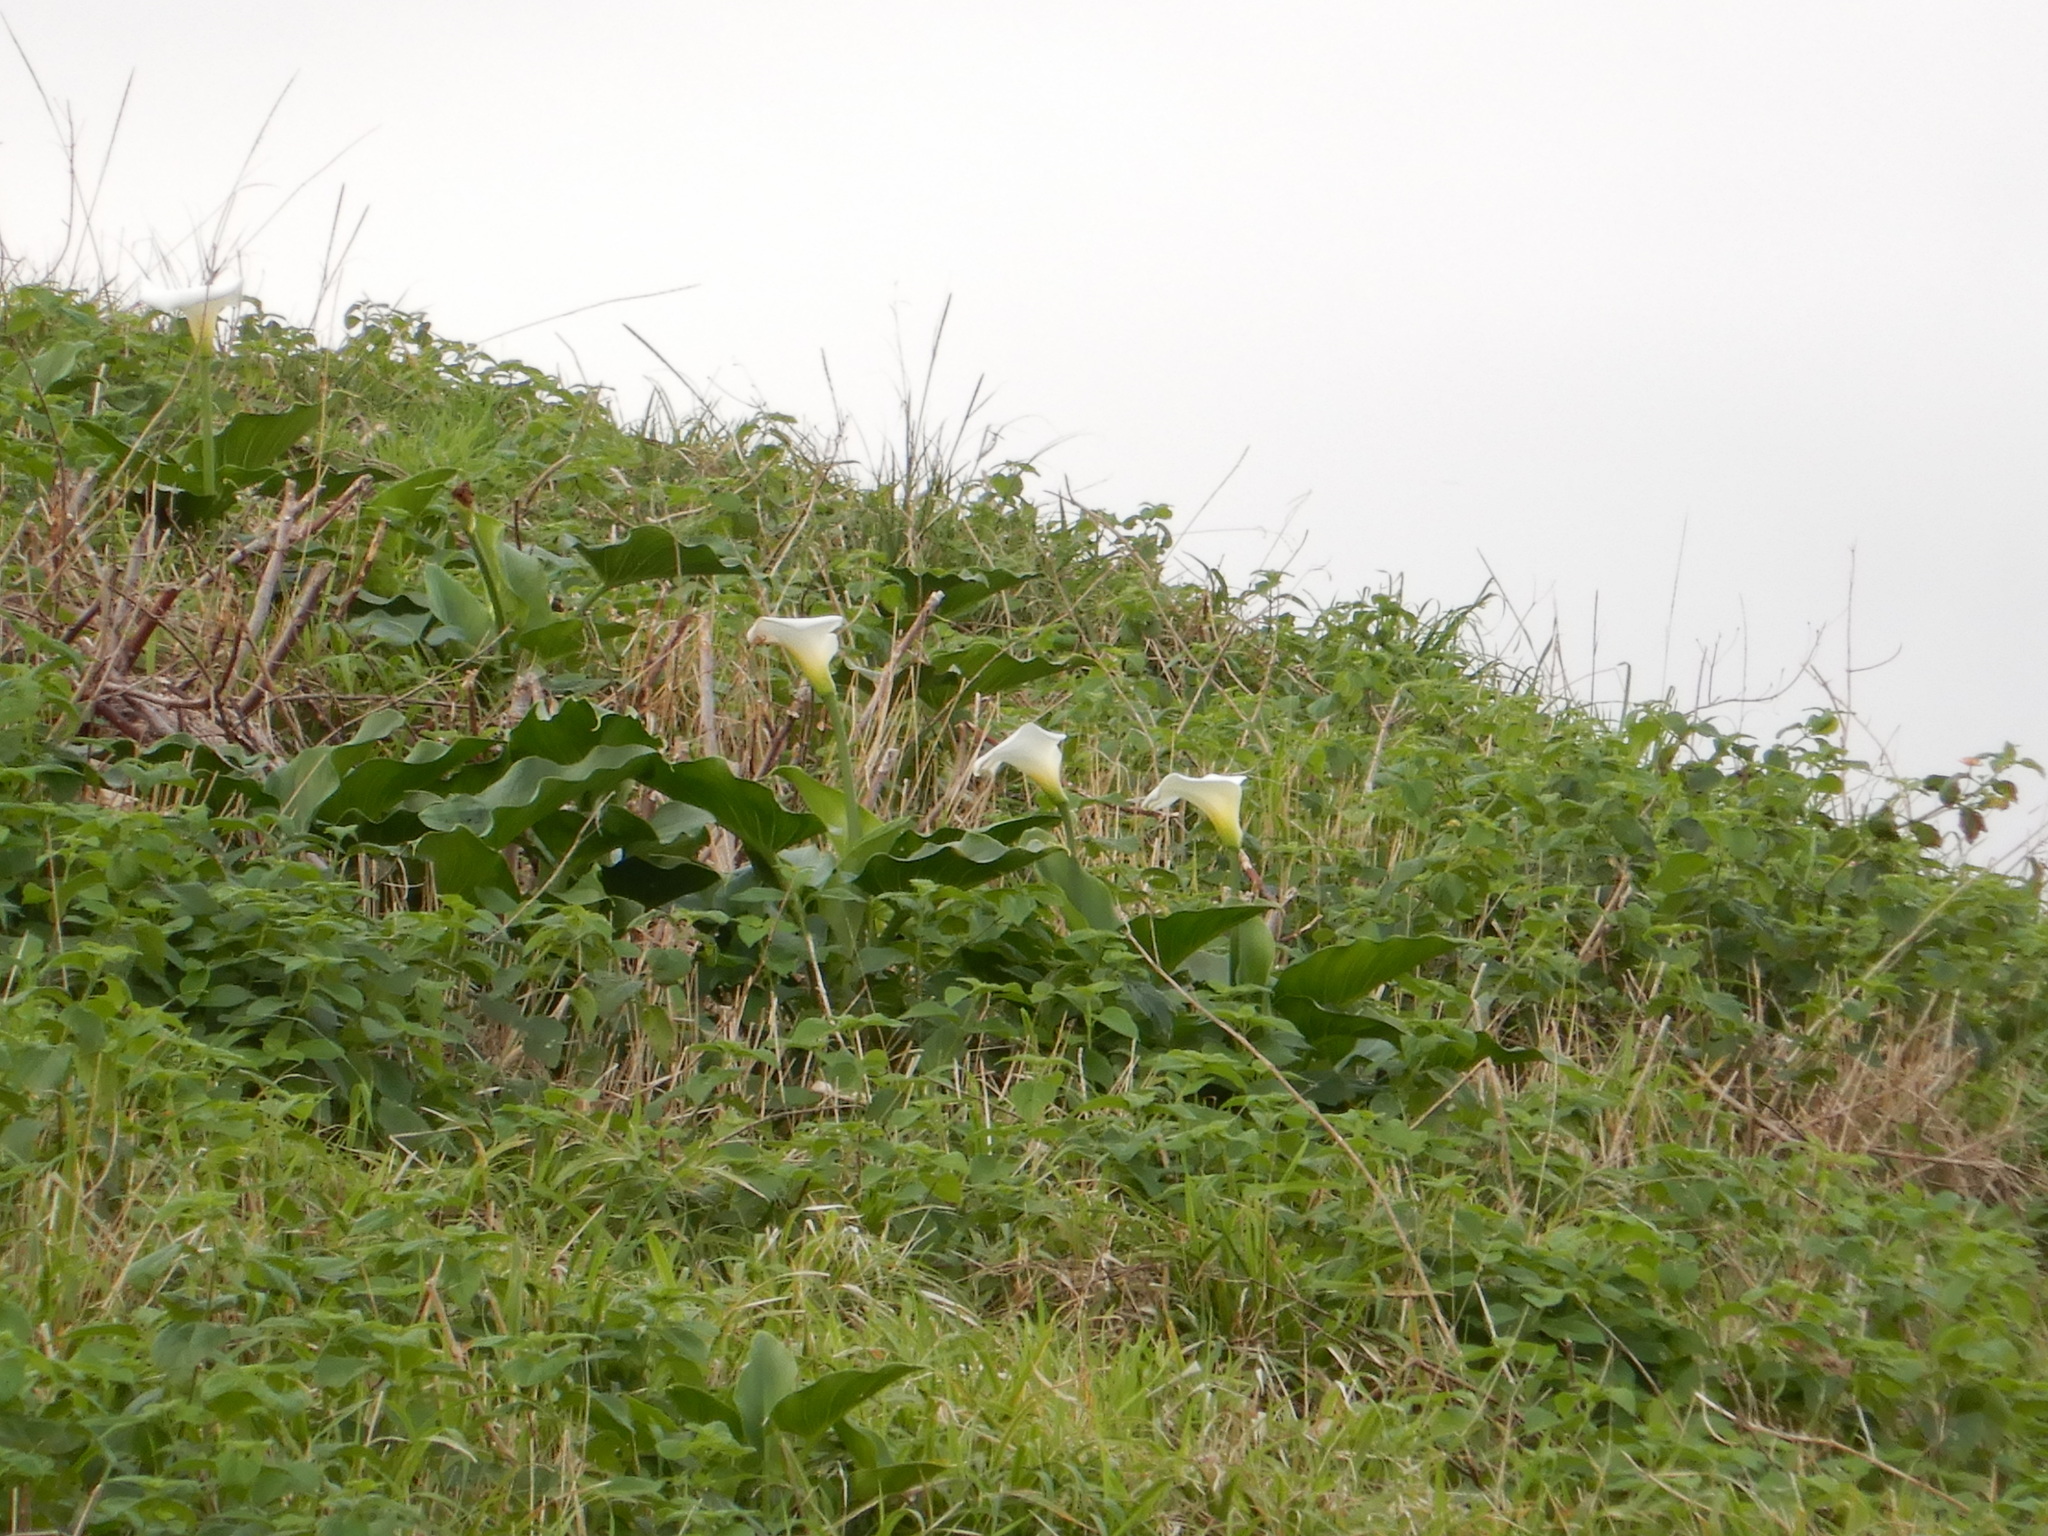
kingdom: Plantae
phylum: Tracheophyta
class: Liliopsida
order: Alismatales
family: Araceae
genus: Zantedeschia
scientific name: Zantedeschia aethiopica
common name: Altar-lily
